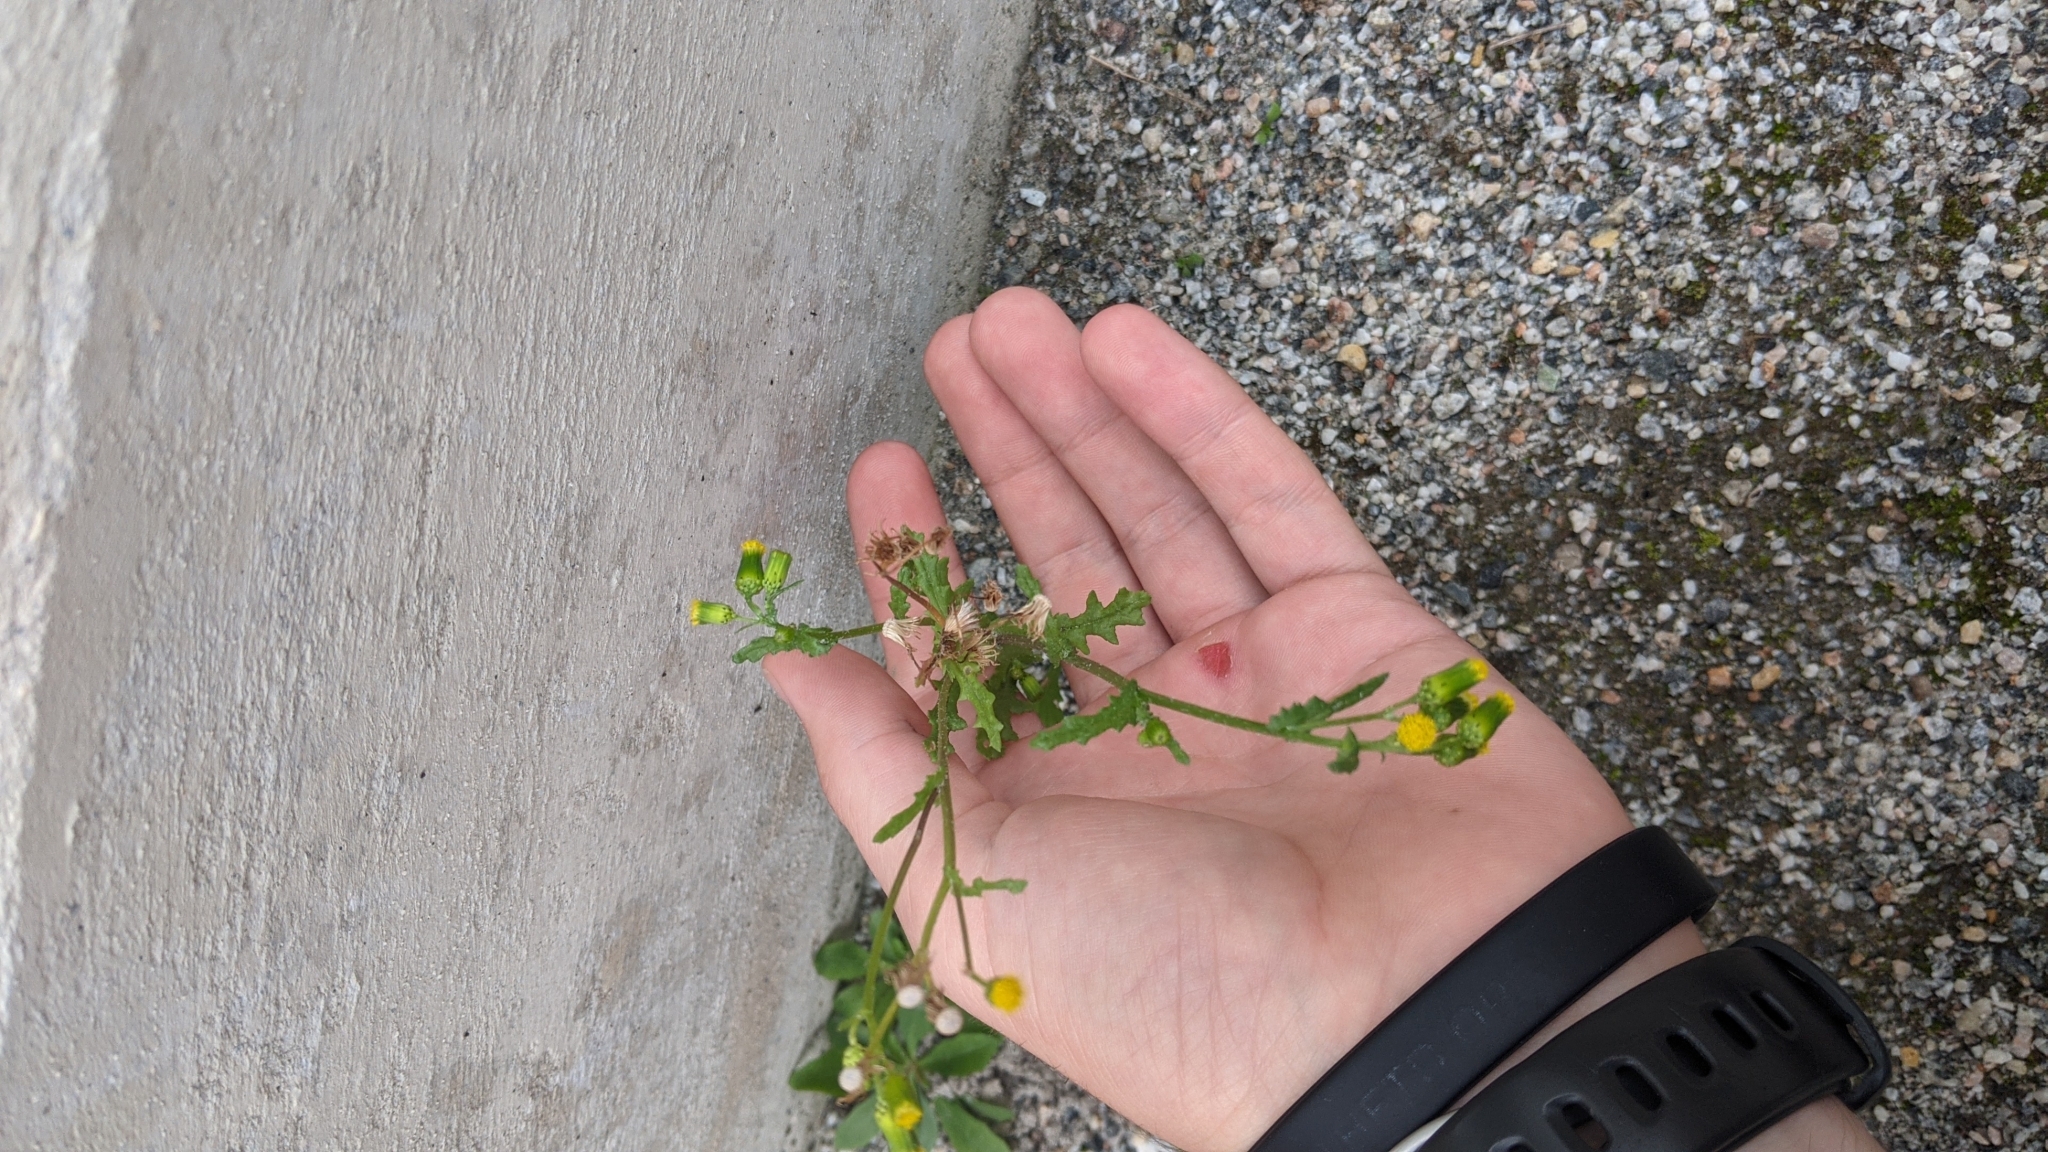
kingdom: Plantae
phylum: Tracheophyta
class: Magnoliopsida
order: Asterales
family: Asteraceae
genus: Senecio
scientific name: Senecio vulgaris
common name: Old-man-in-the-spring
